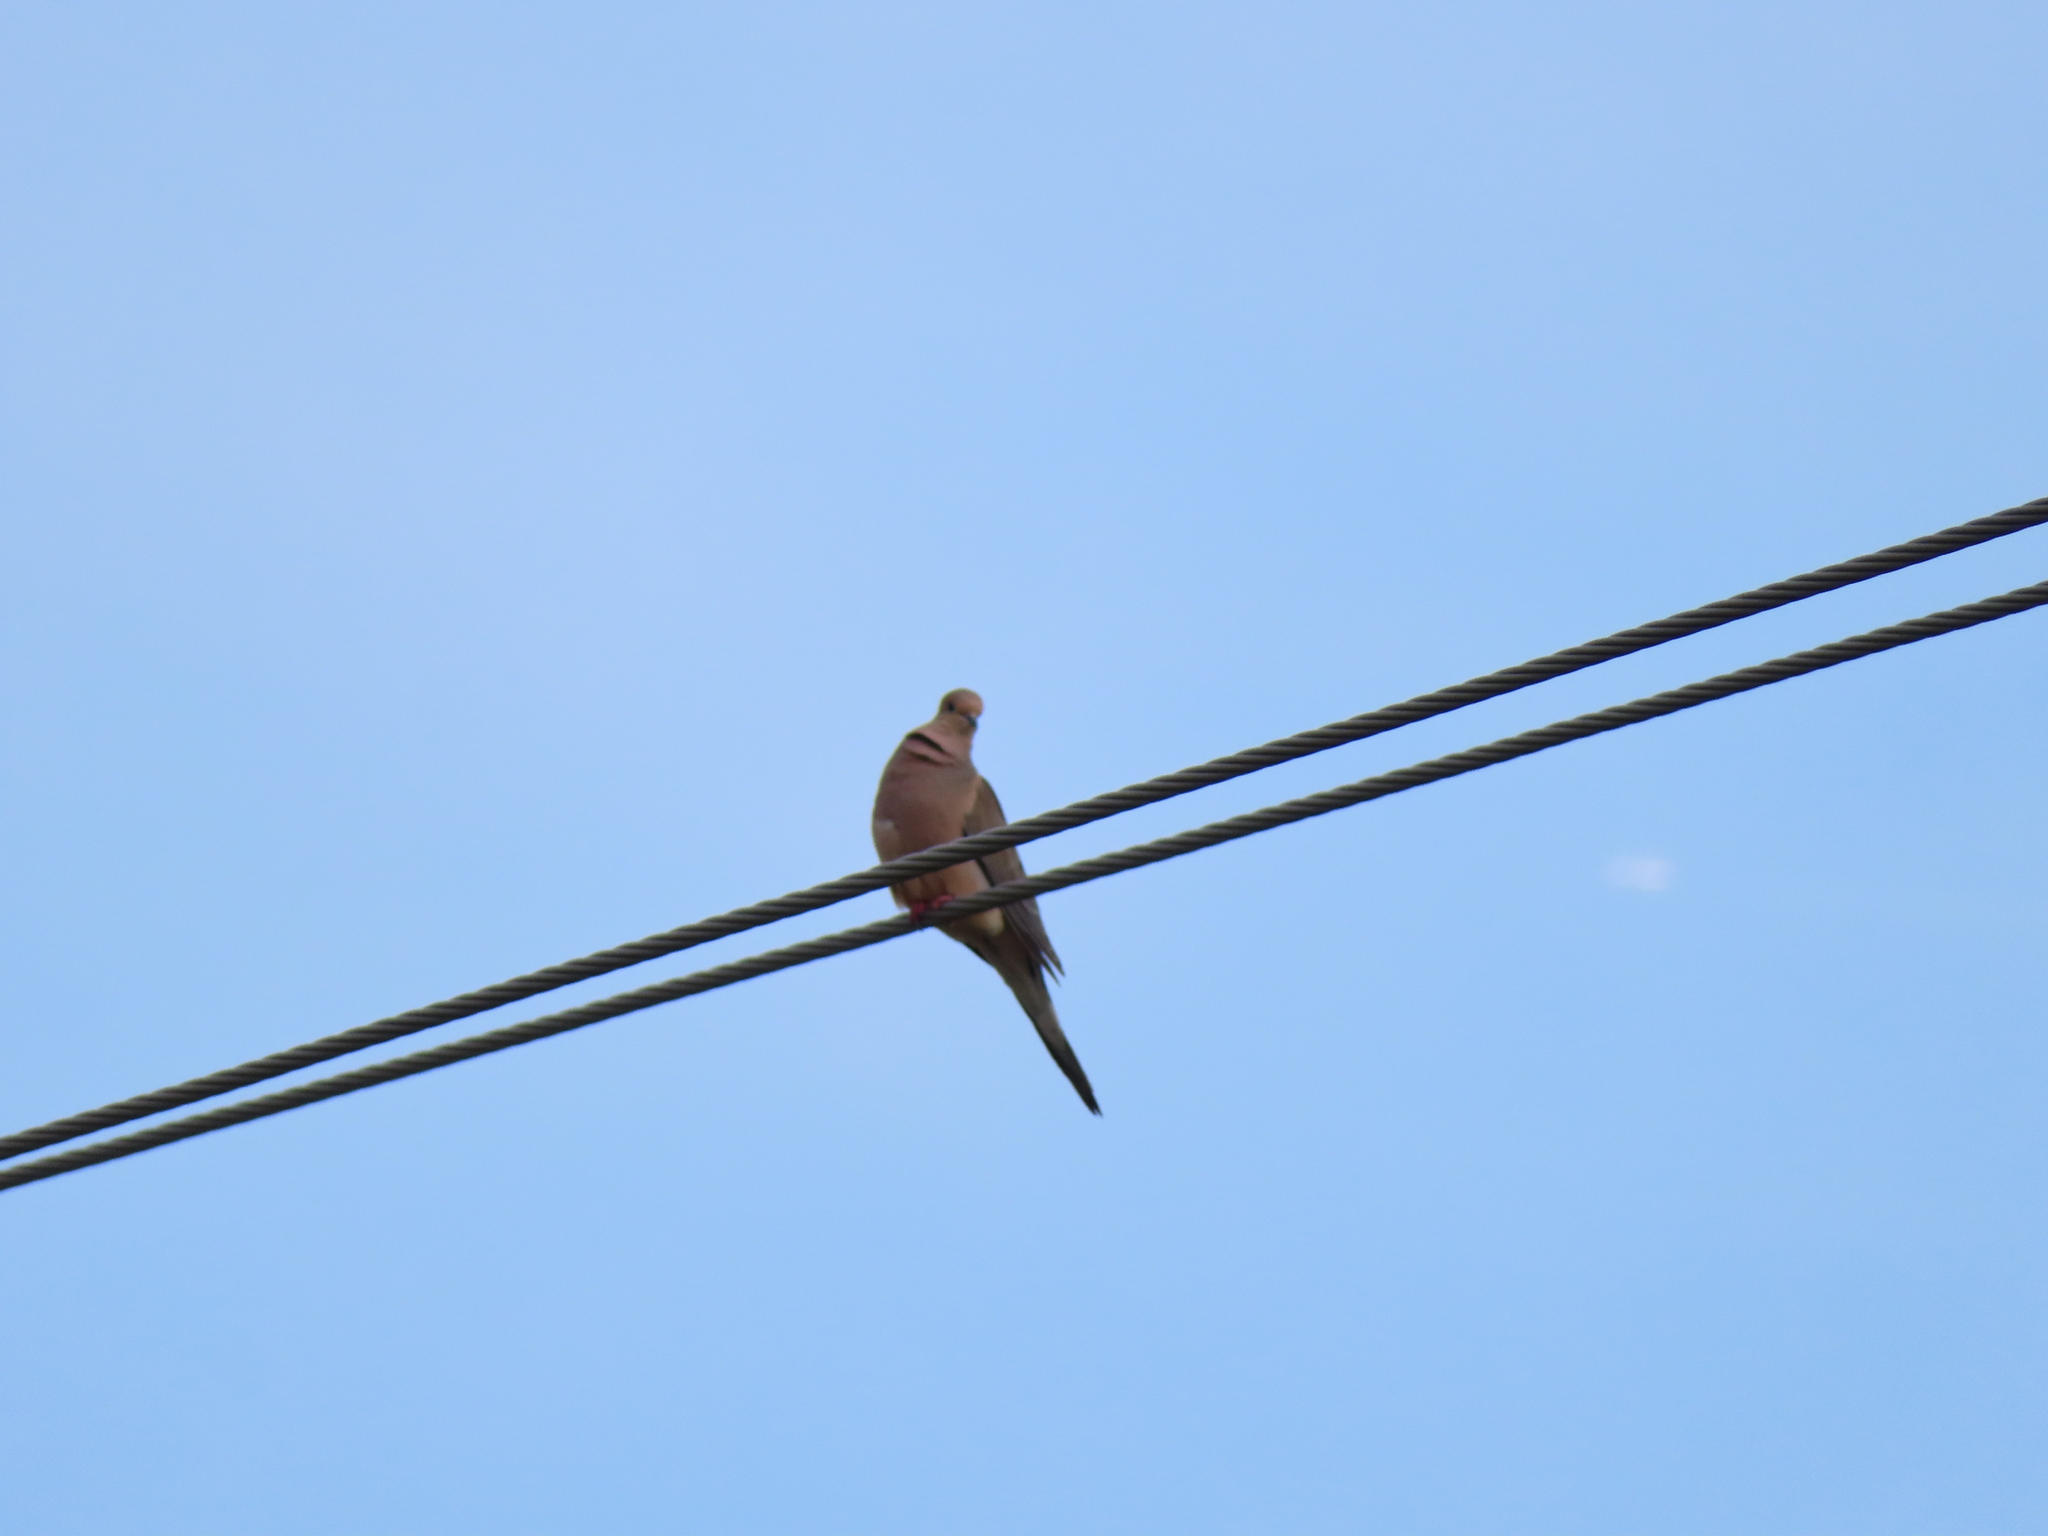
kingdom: Animalia
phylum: Chordata
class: Aves
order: Columbiformes
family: Columbidae
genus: Zenaida
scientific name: Zenaida macroura
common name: Mourning dove
